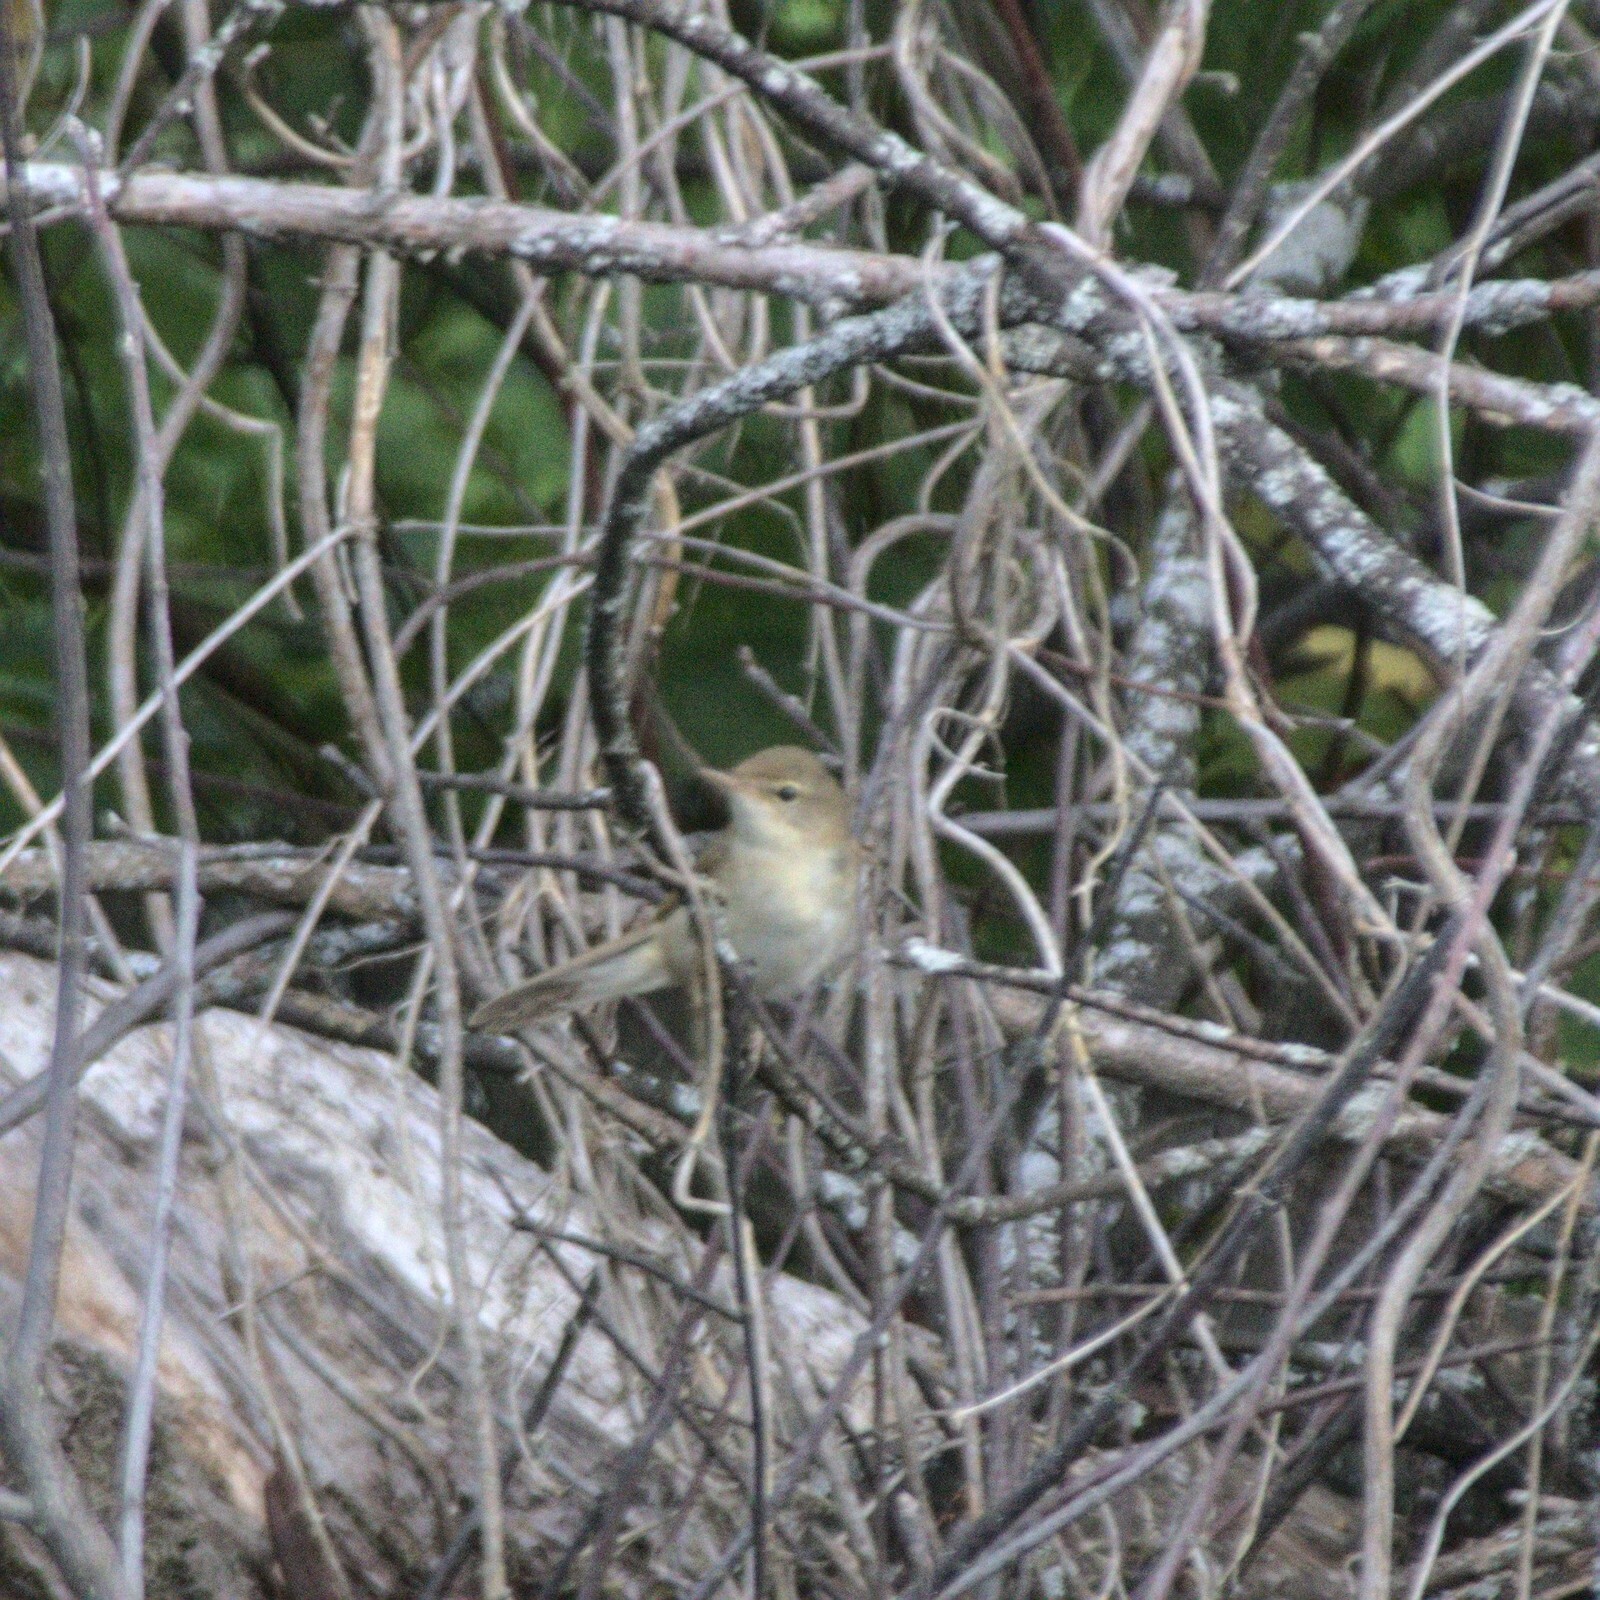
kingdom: Animalia
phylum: Chordata
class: Aves
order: Passeriformes
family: Acrocephalidae
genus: Iduna
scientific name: Iduna caligata
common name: Booted warbler
